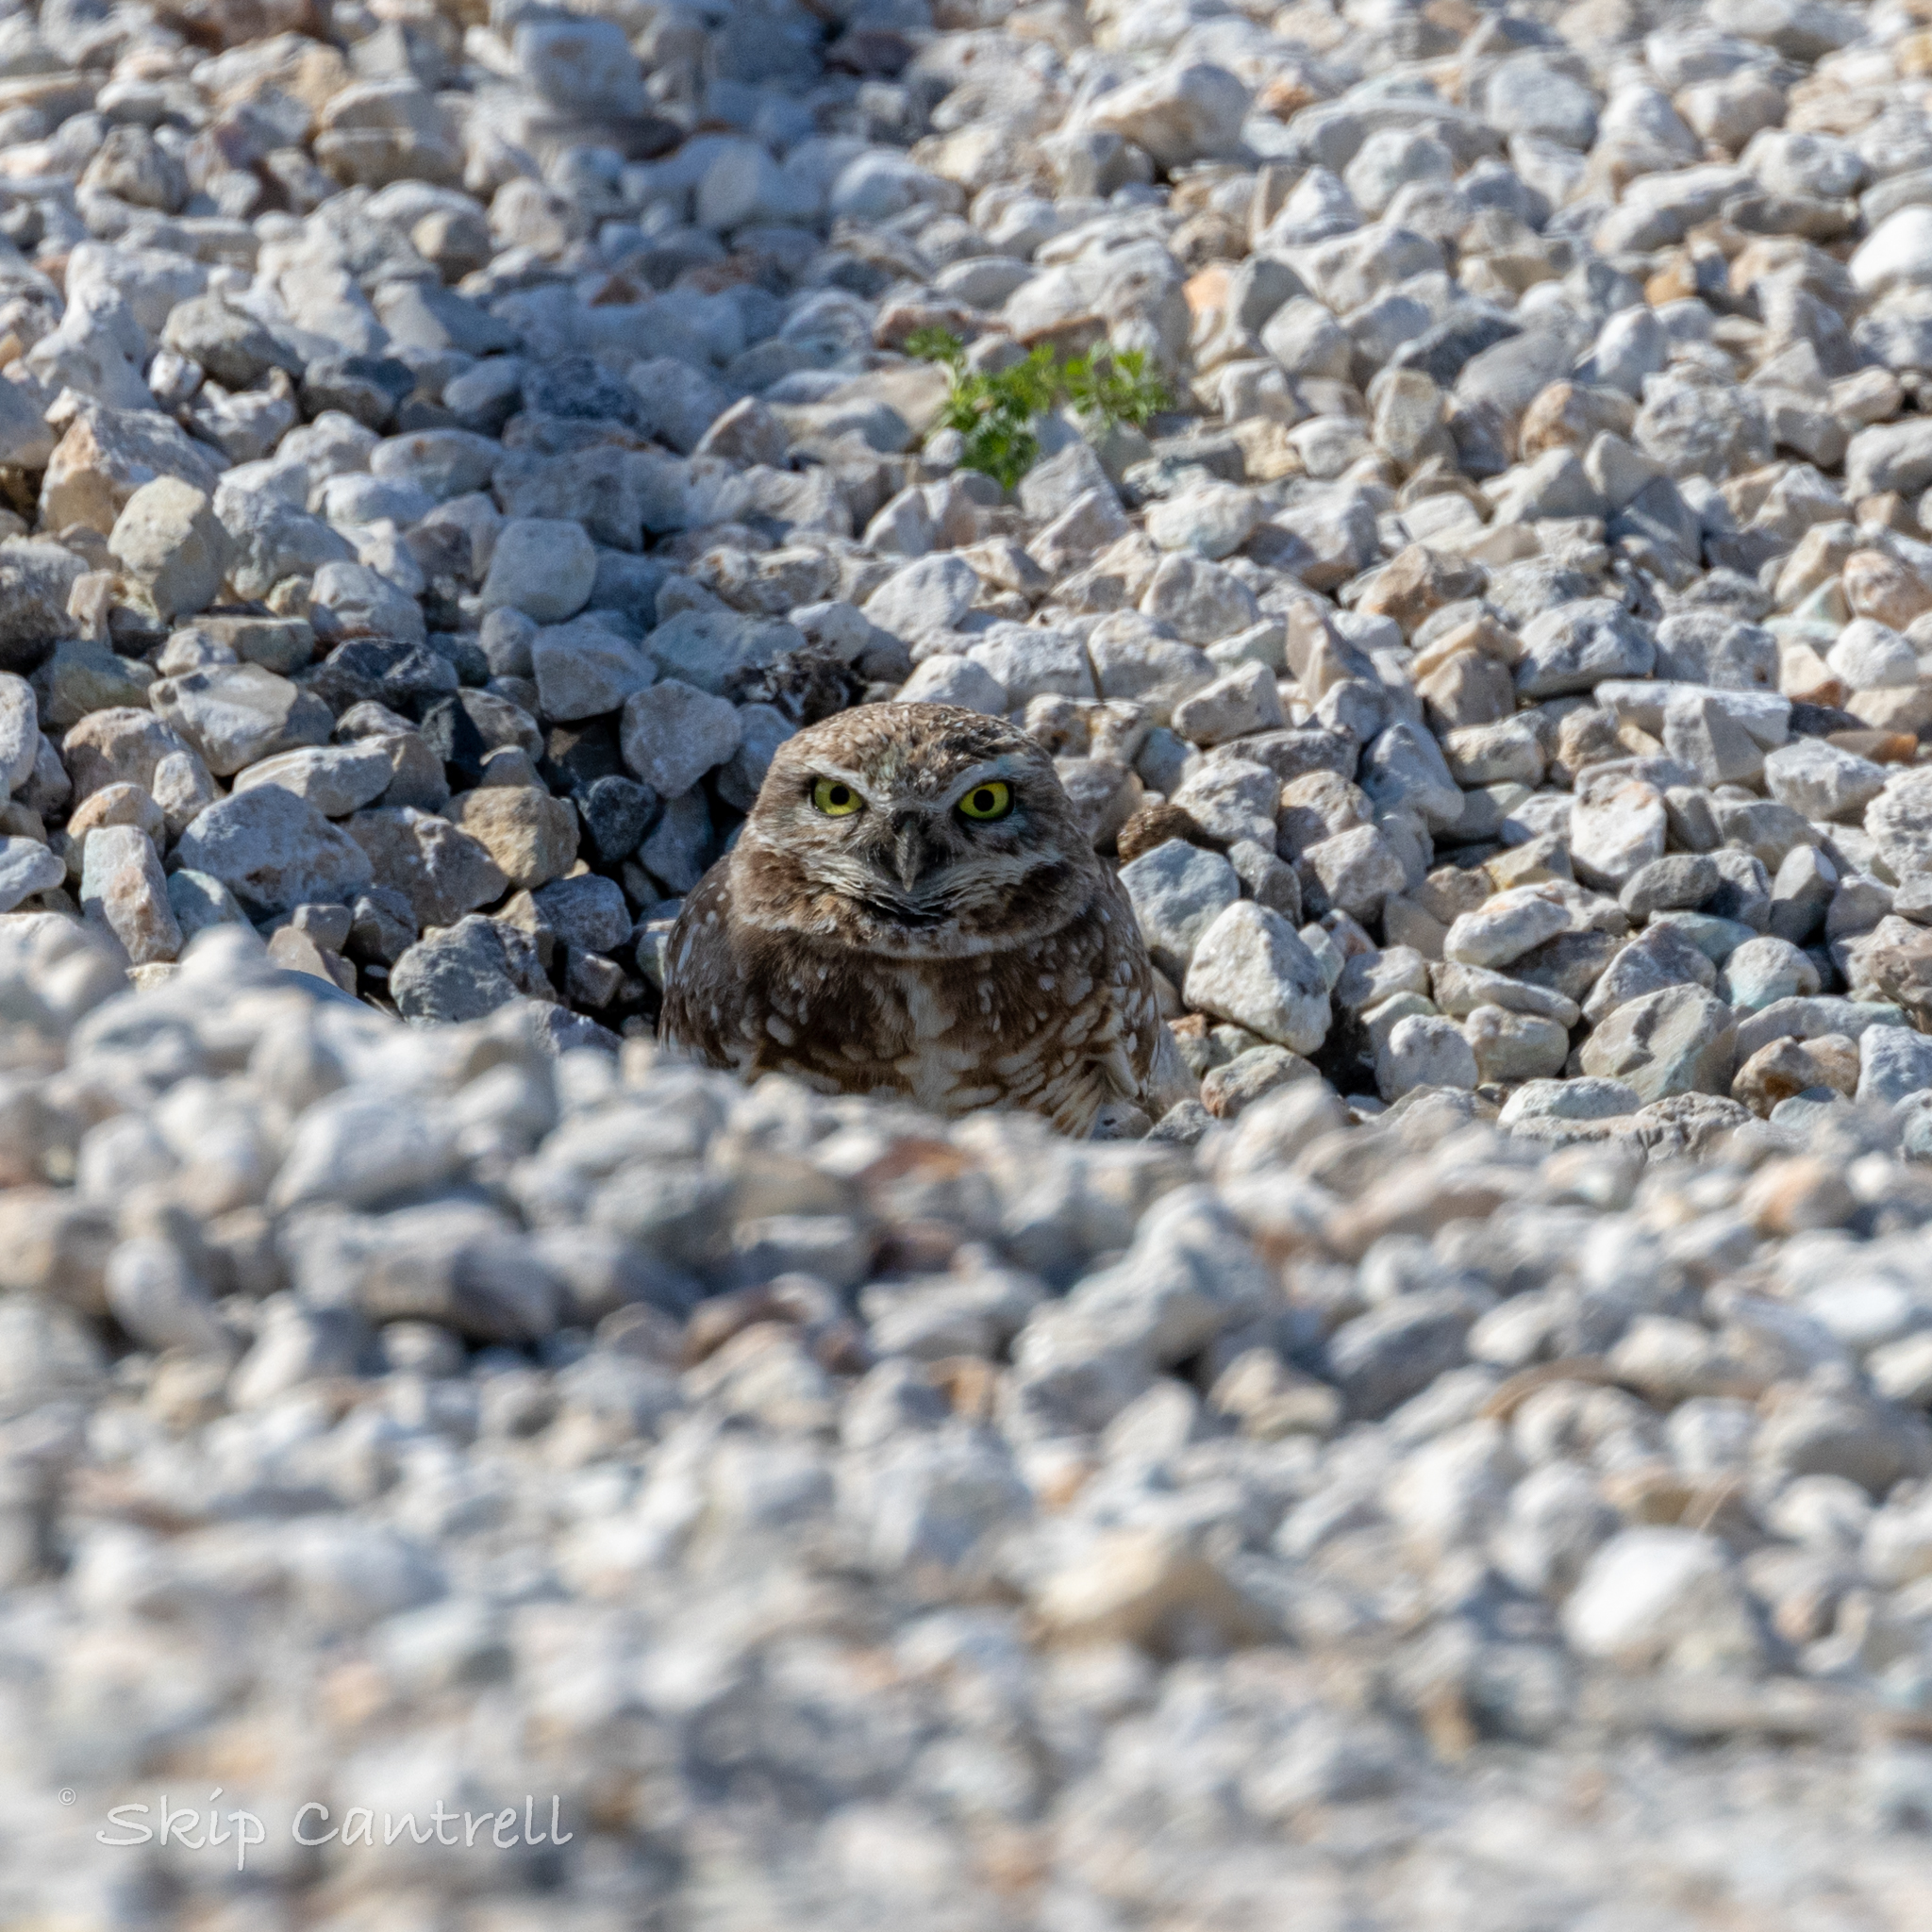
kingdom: Animalia
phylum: Chordata
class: Aves
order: Strigiformes
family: Strigidae
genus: Athene
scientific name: Athene cunicularia
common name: Burrowing owl
